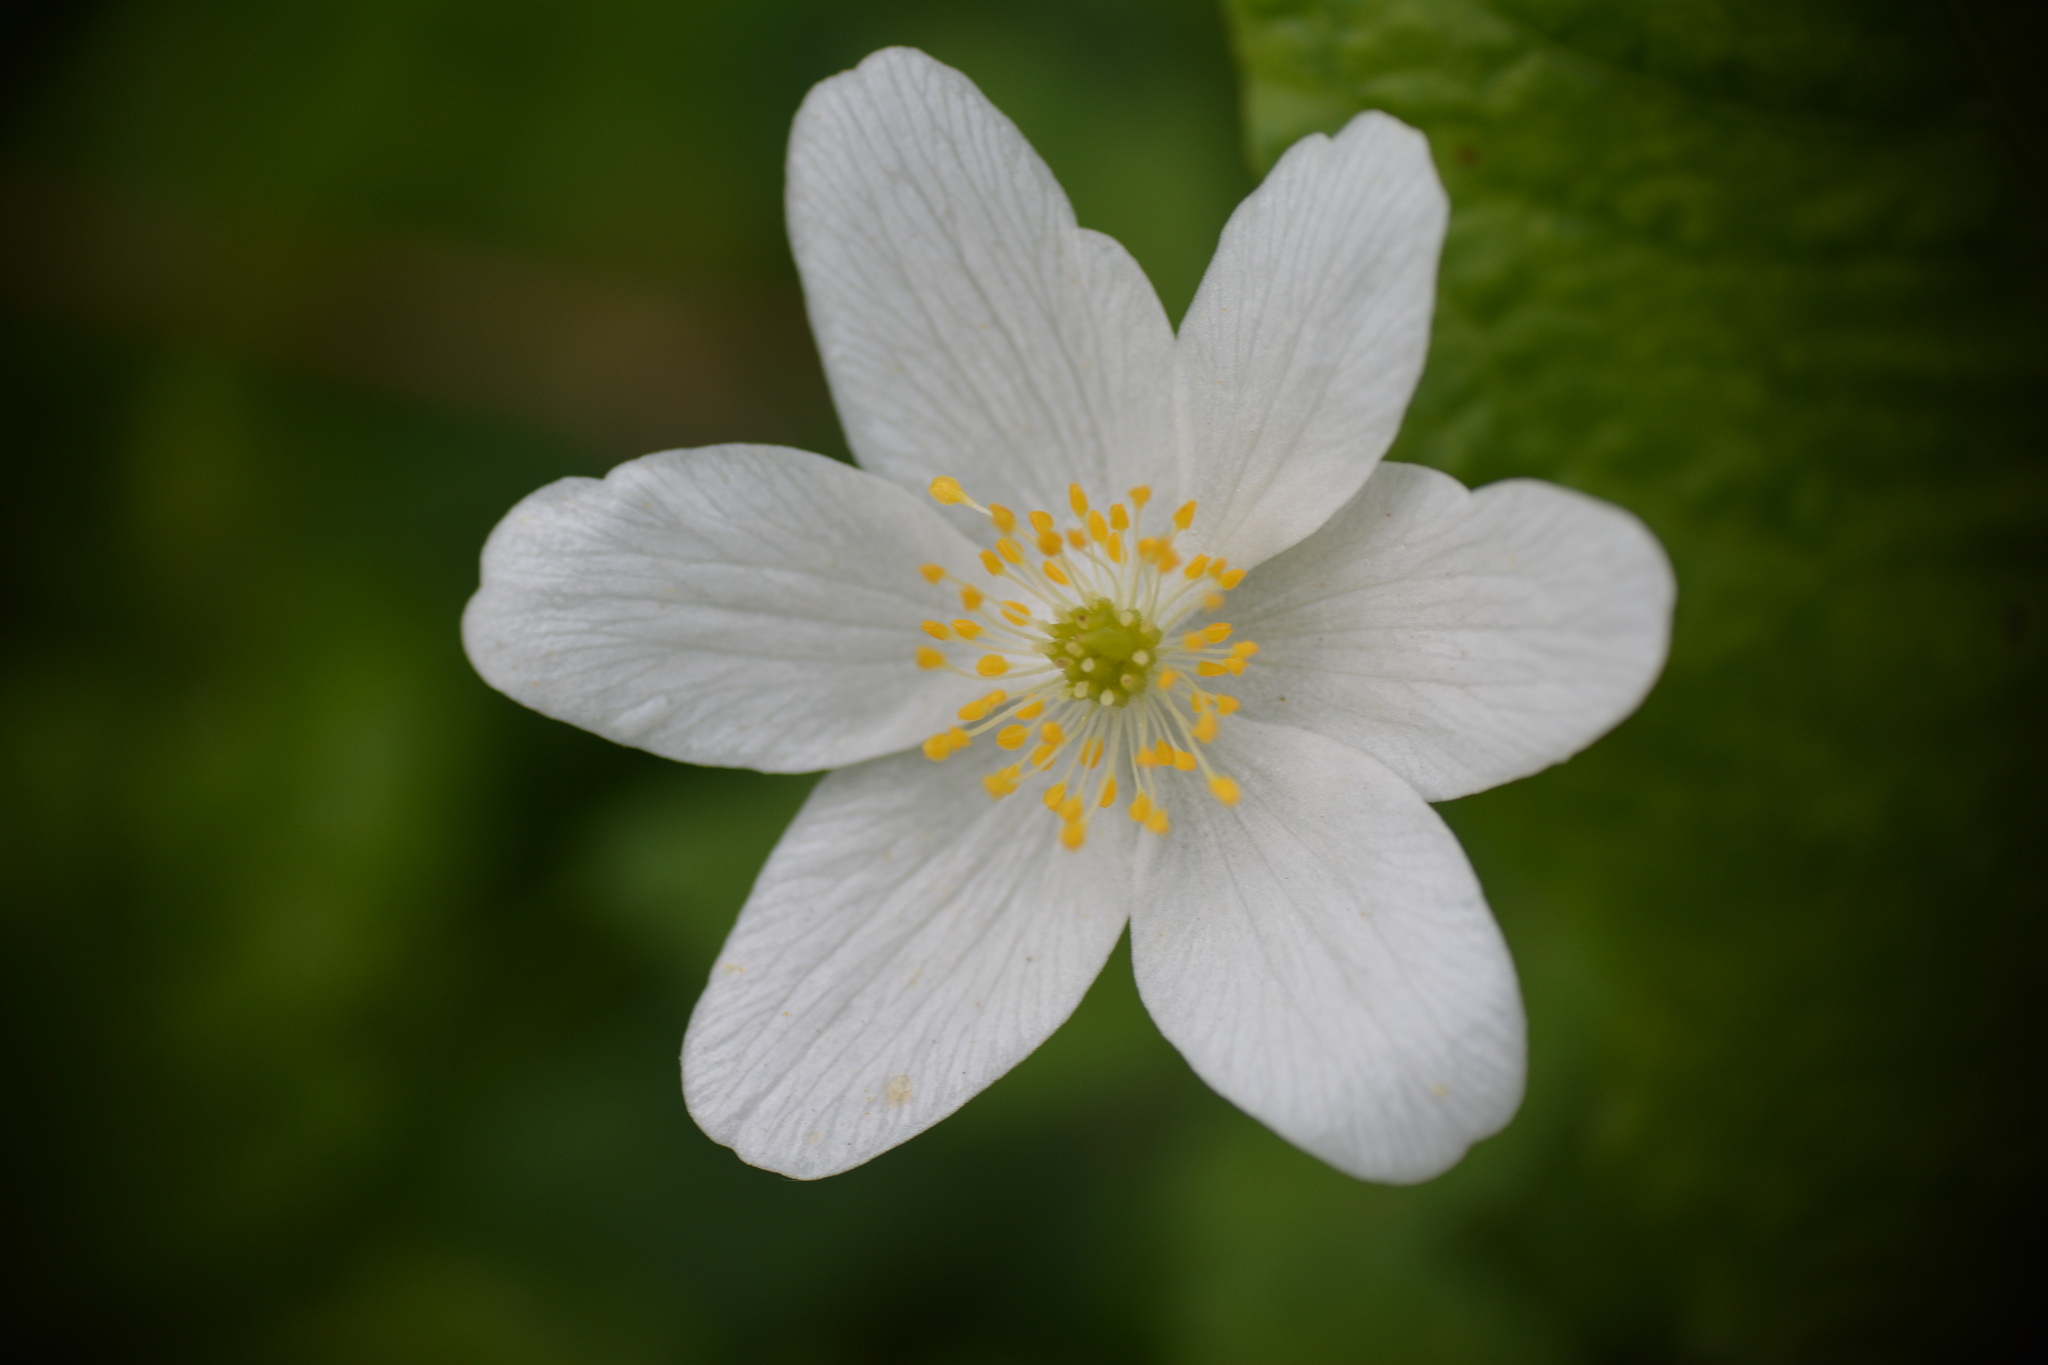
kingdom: Plantae
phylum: Tracheophyta
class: Magnoliopsida
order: Ranunculales
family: Ranunculaceae
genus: Anemone
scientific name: Anemone nemorosa
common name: Wood anemone
